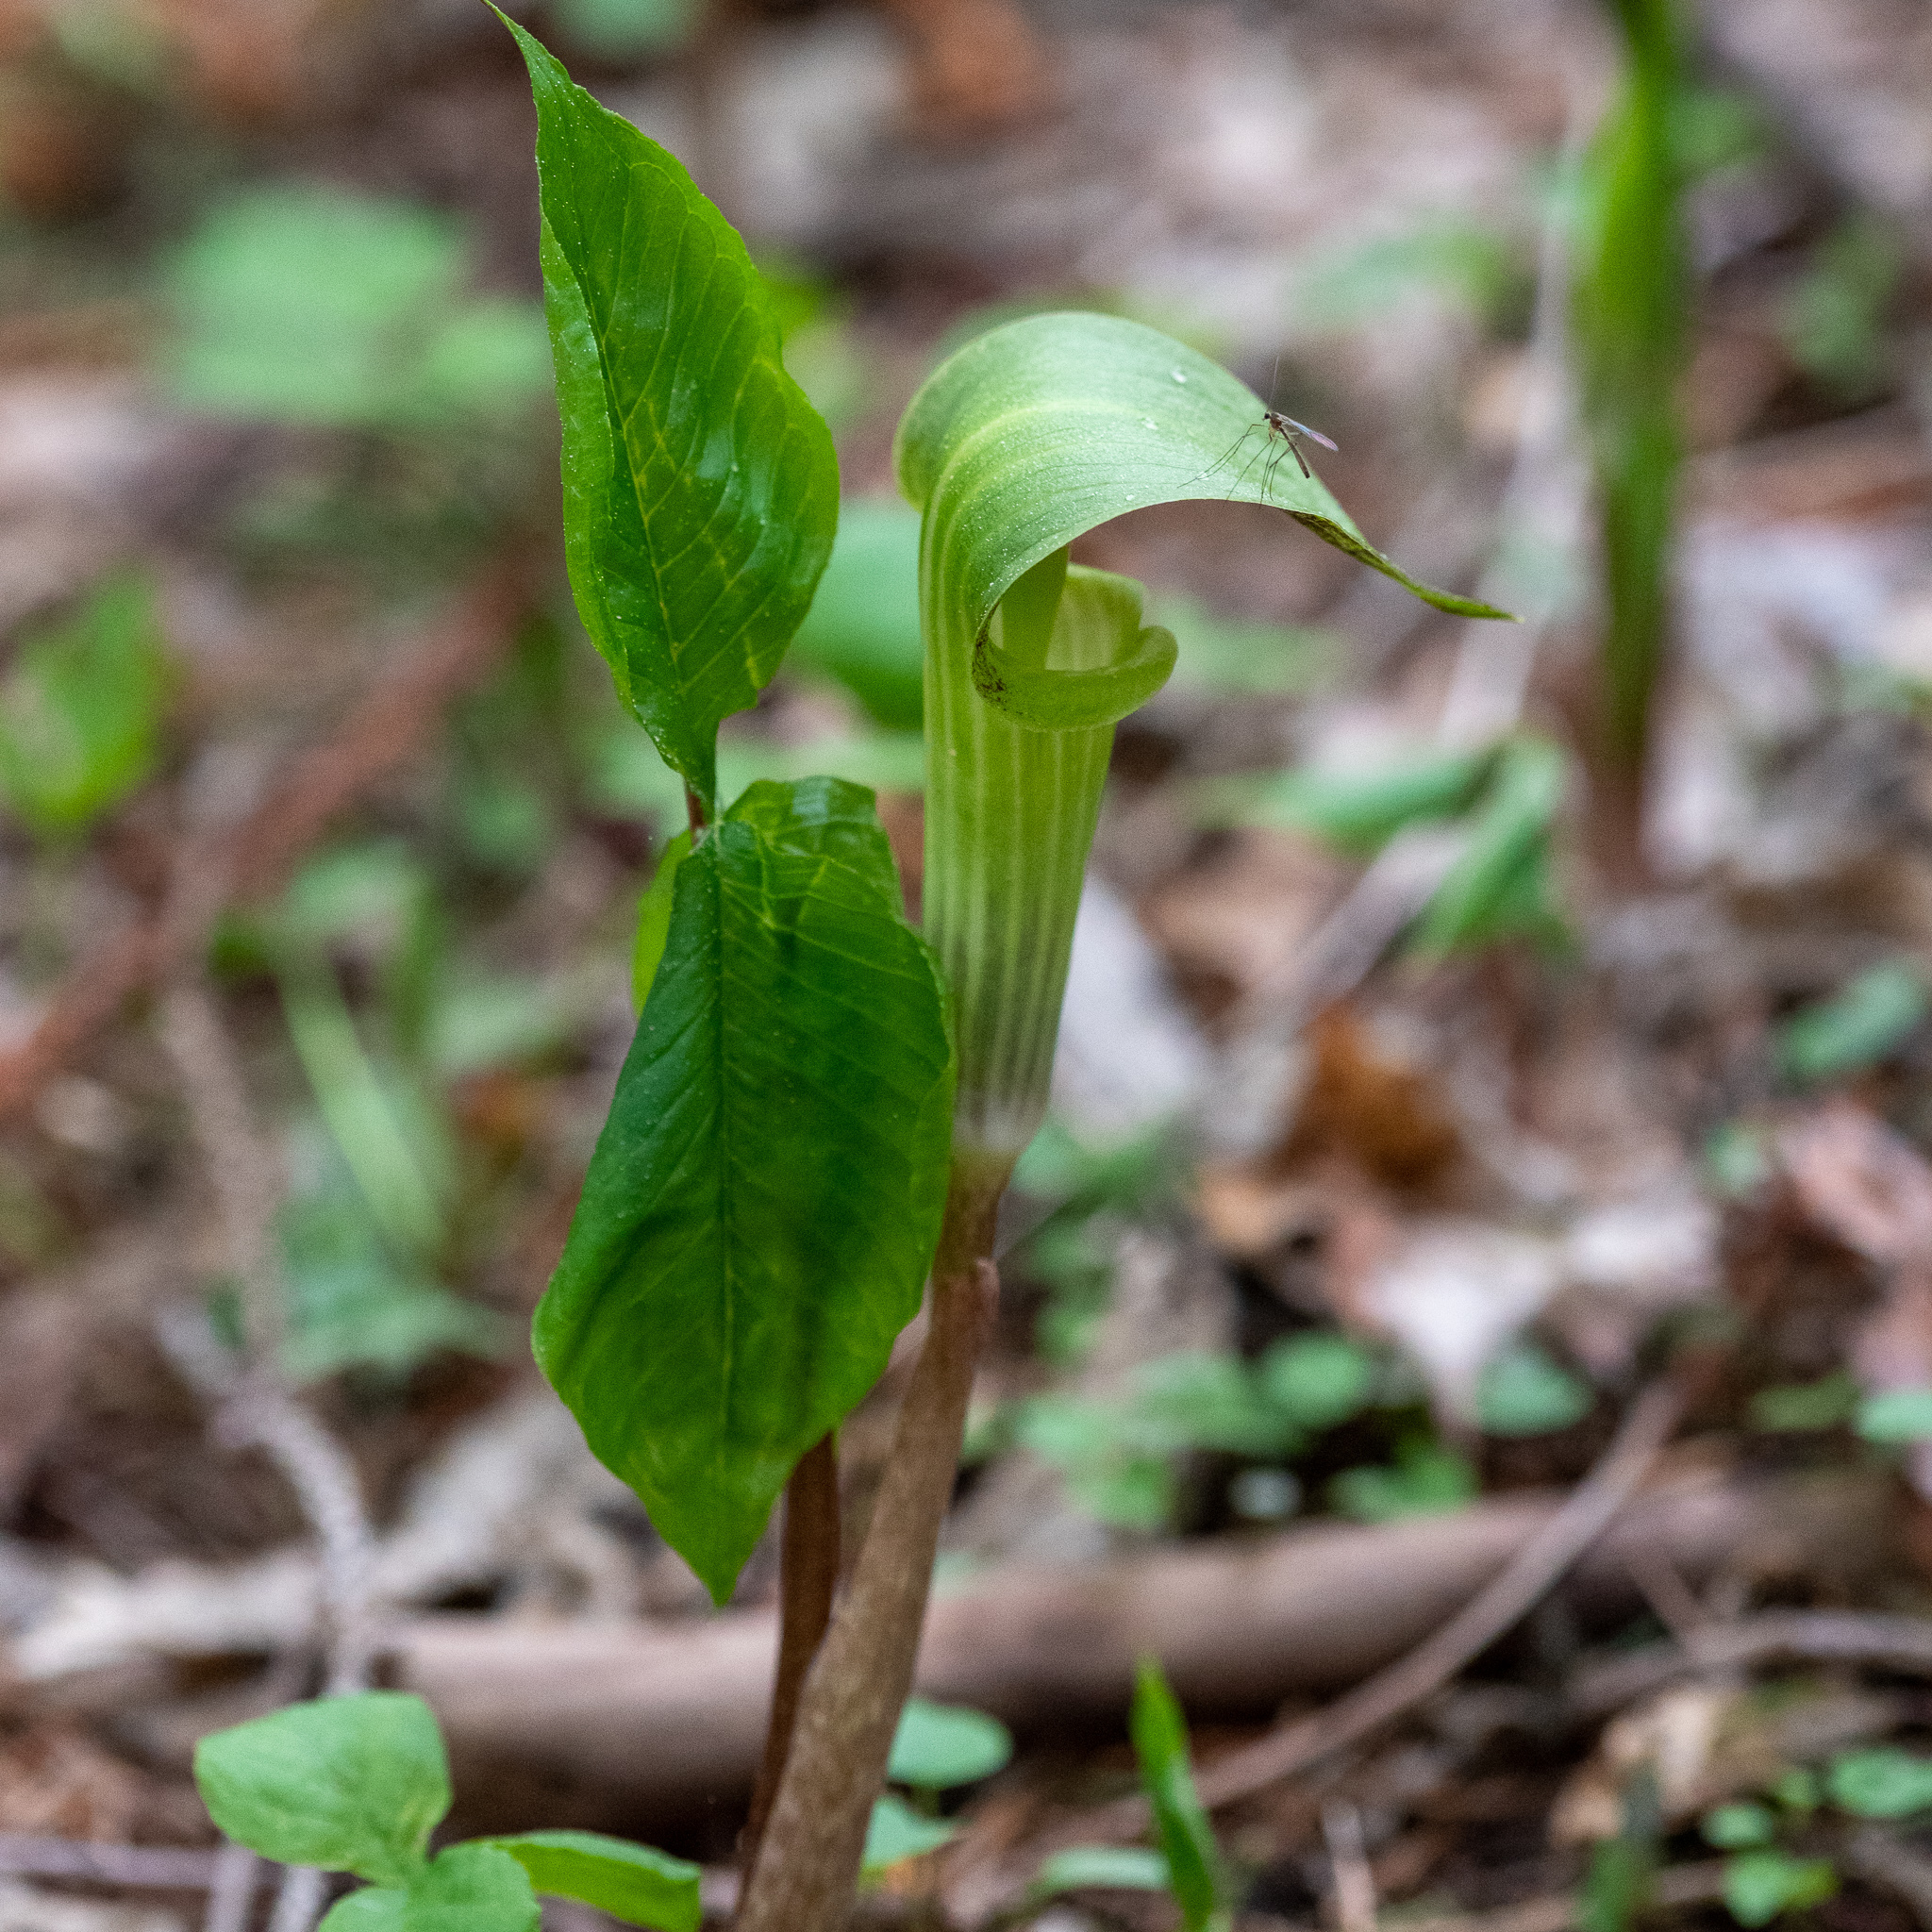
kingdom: Plantae
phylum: Tracheophyta
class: Liliopsida
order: Alismatales
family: Araceae
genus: Arisaema
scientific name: Arisaema triphyllum
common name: Jack-in-the-pulpit
